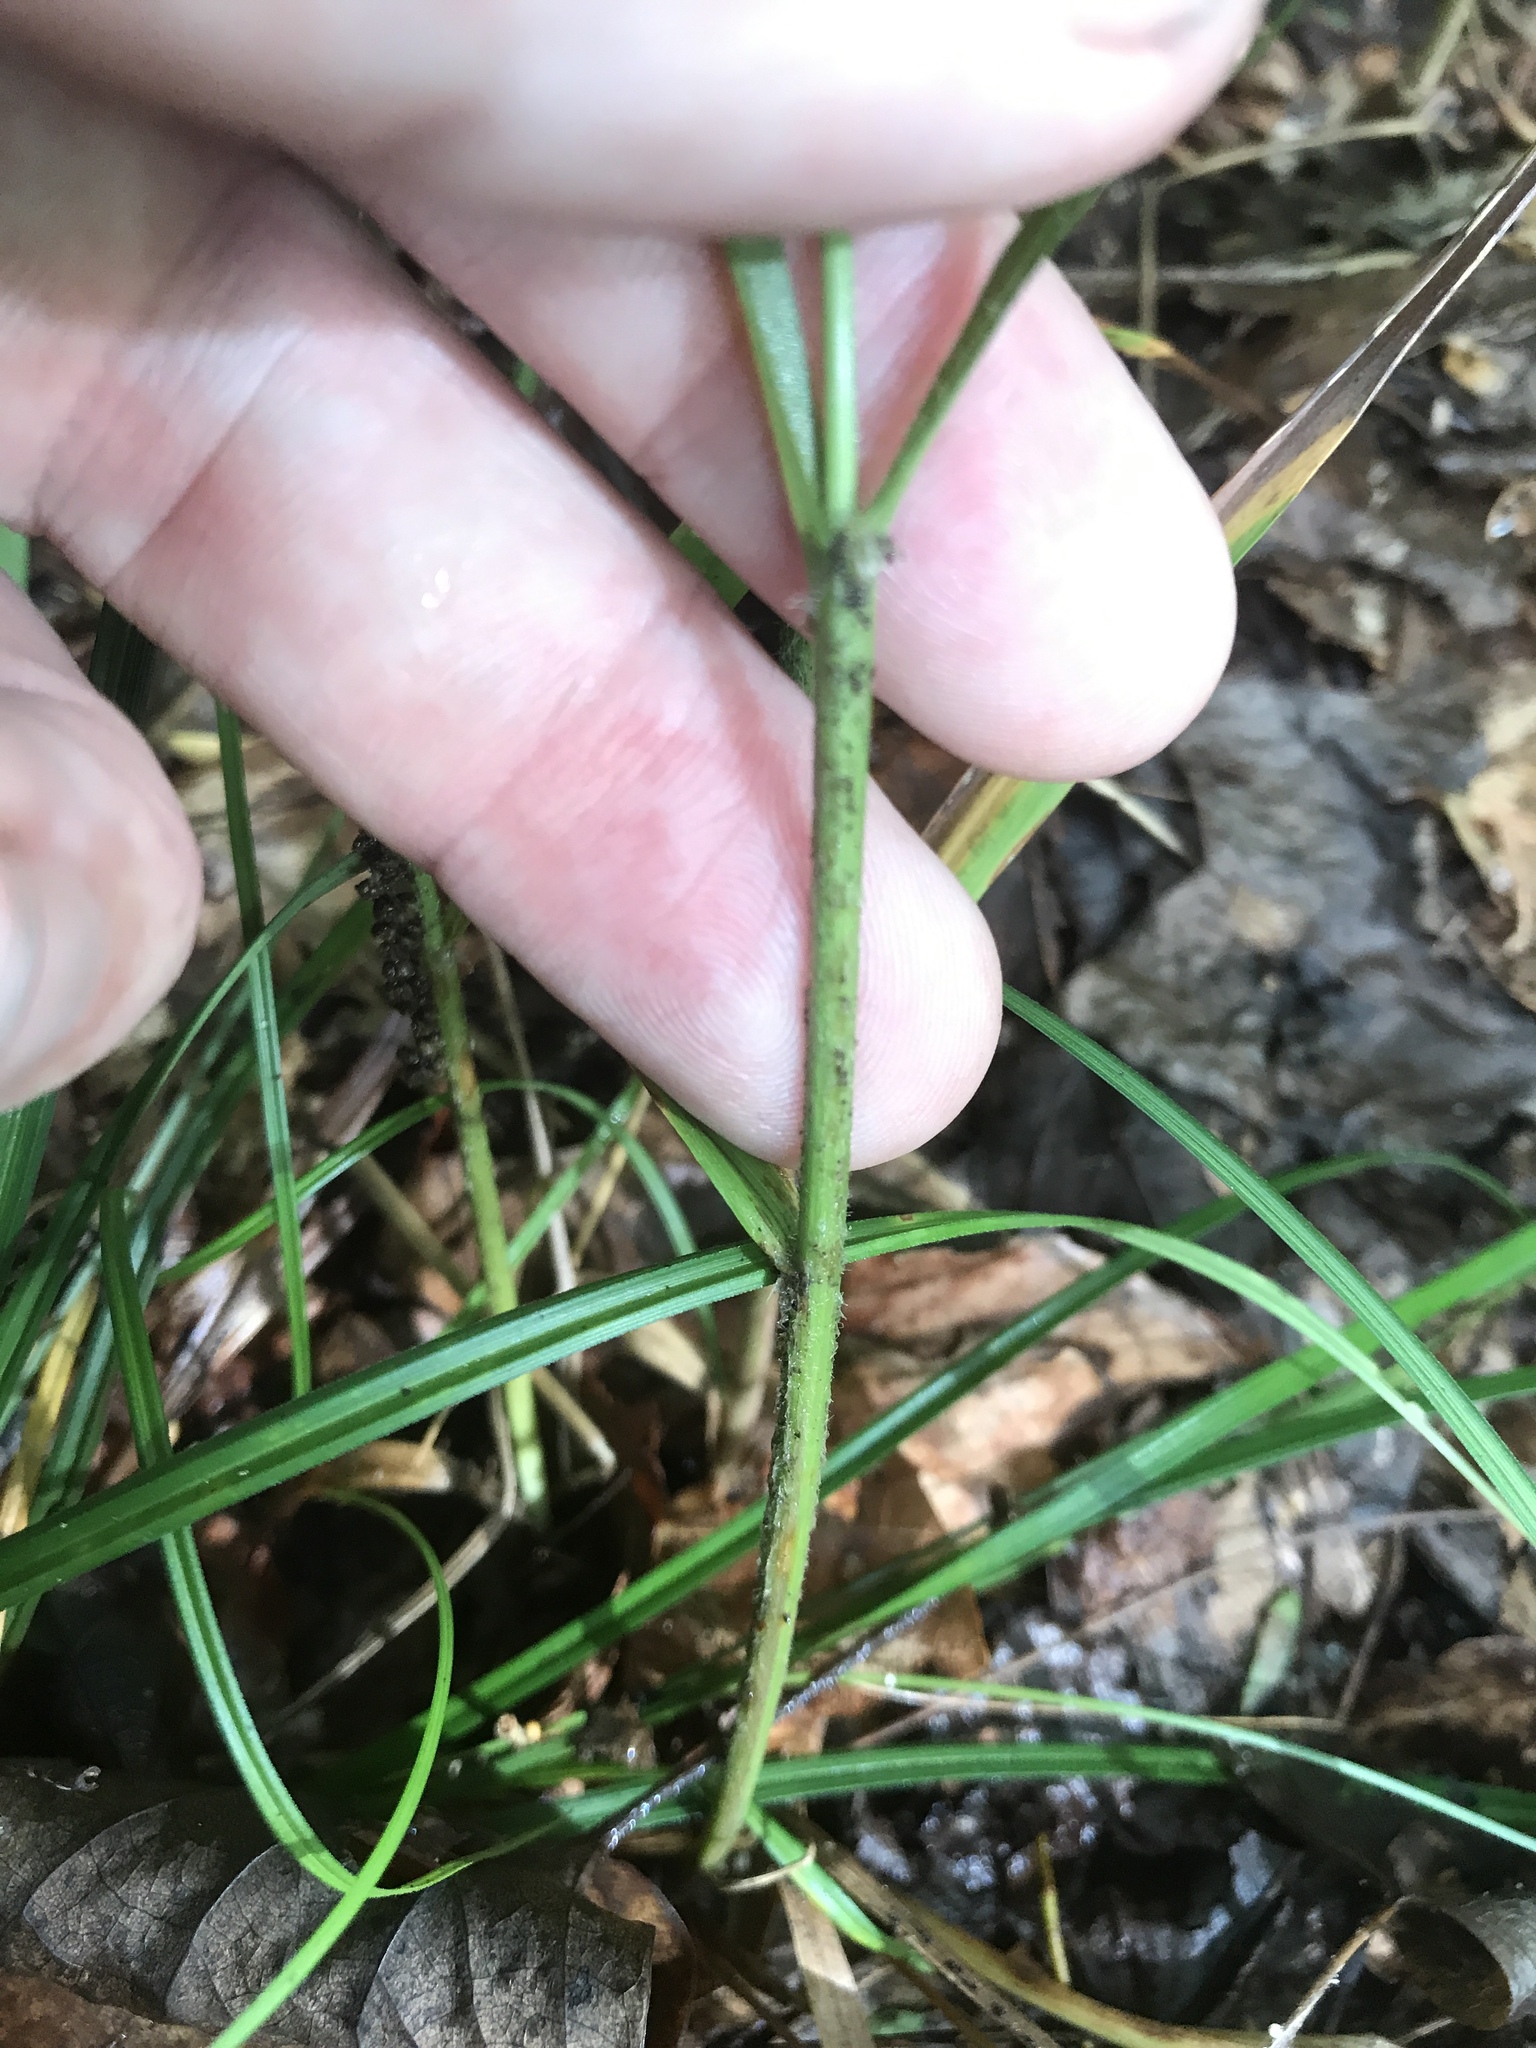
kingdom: Plantae
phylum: Tracheophyta
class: Liliopsida
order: Poales
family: Poaceae
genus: Chasmanthium
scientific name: Chasmanthium laxum
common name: Slender chasmanthium
